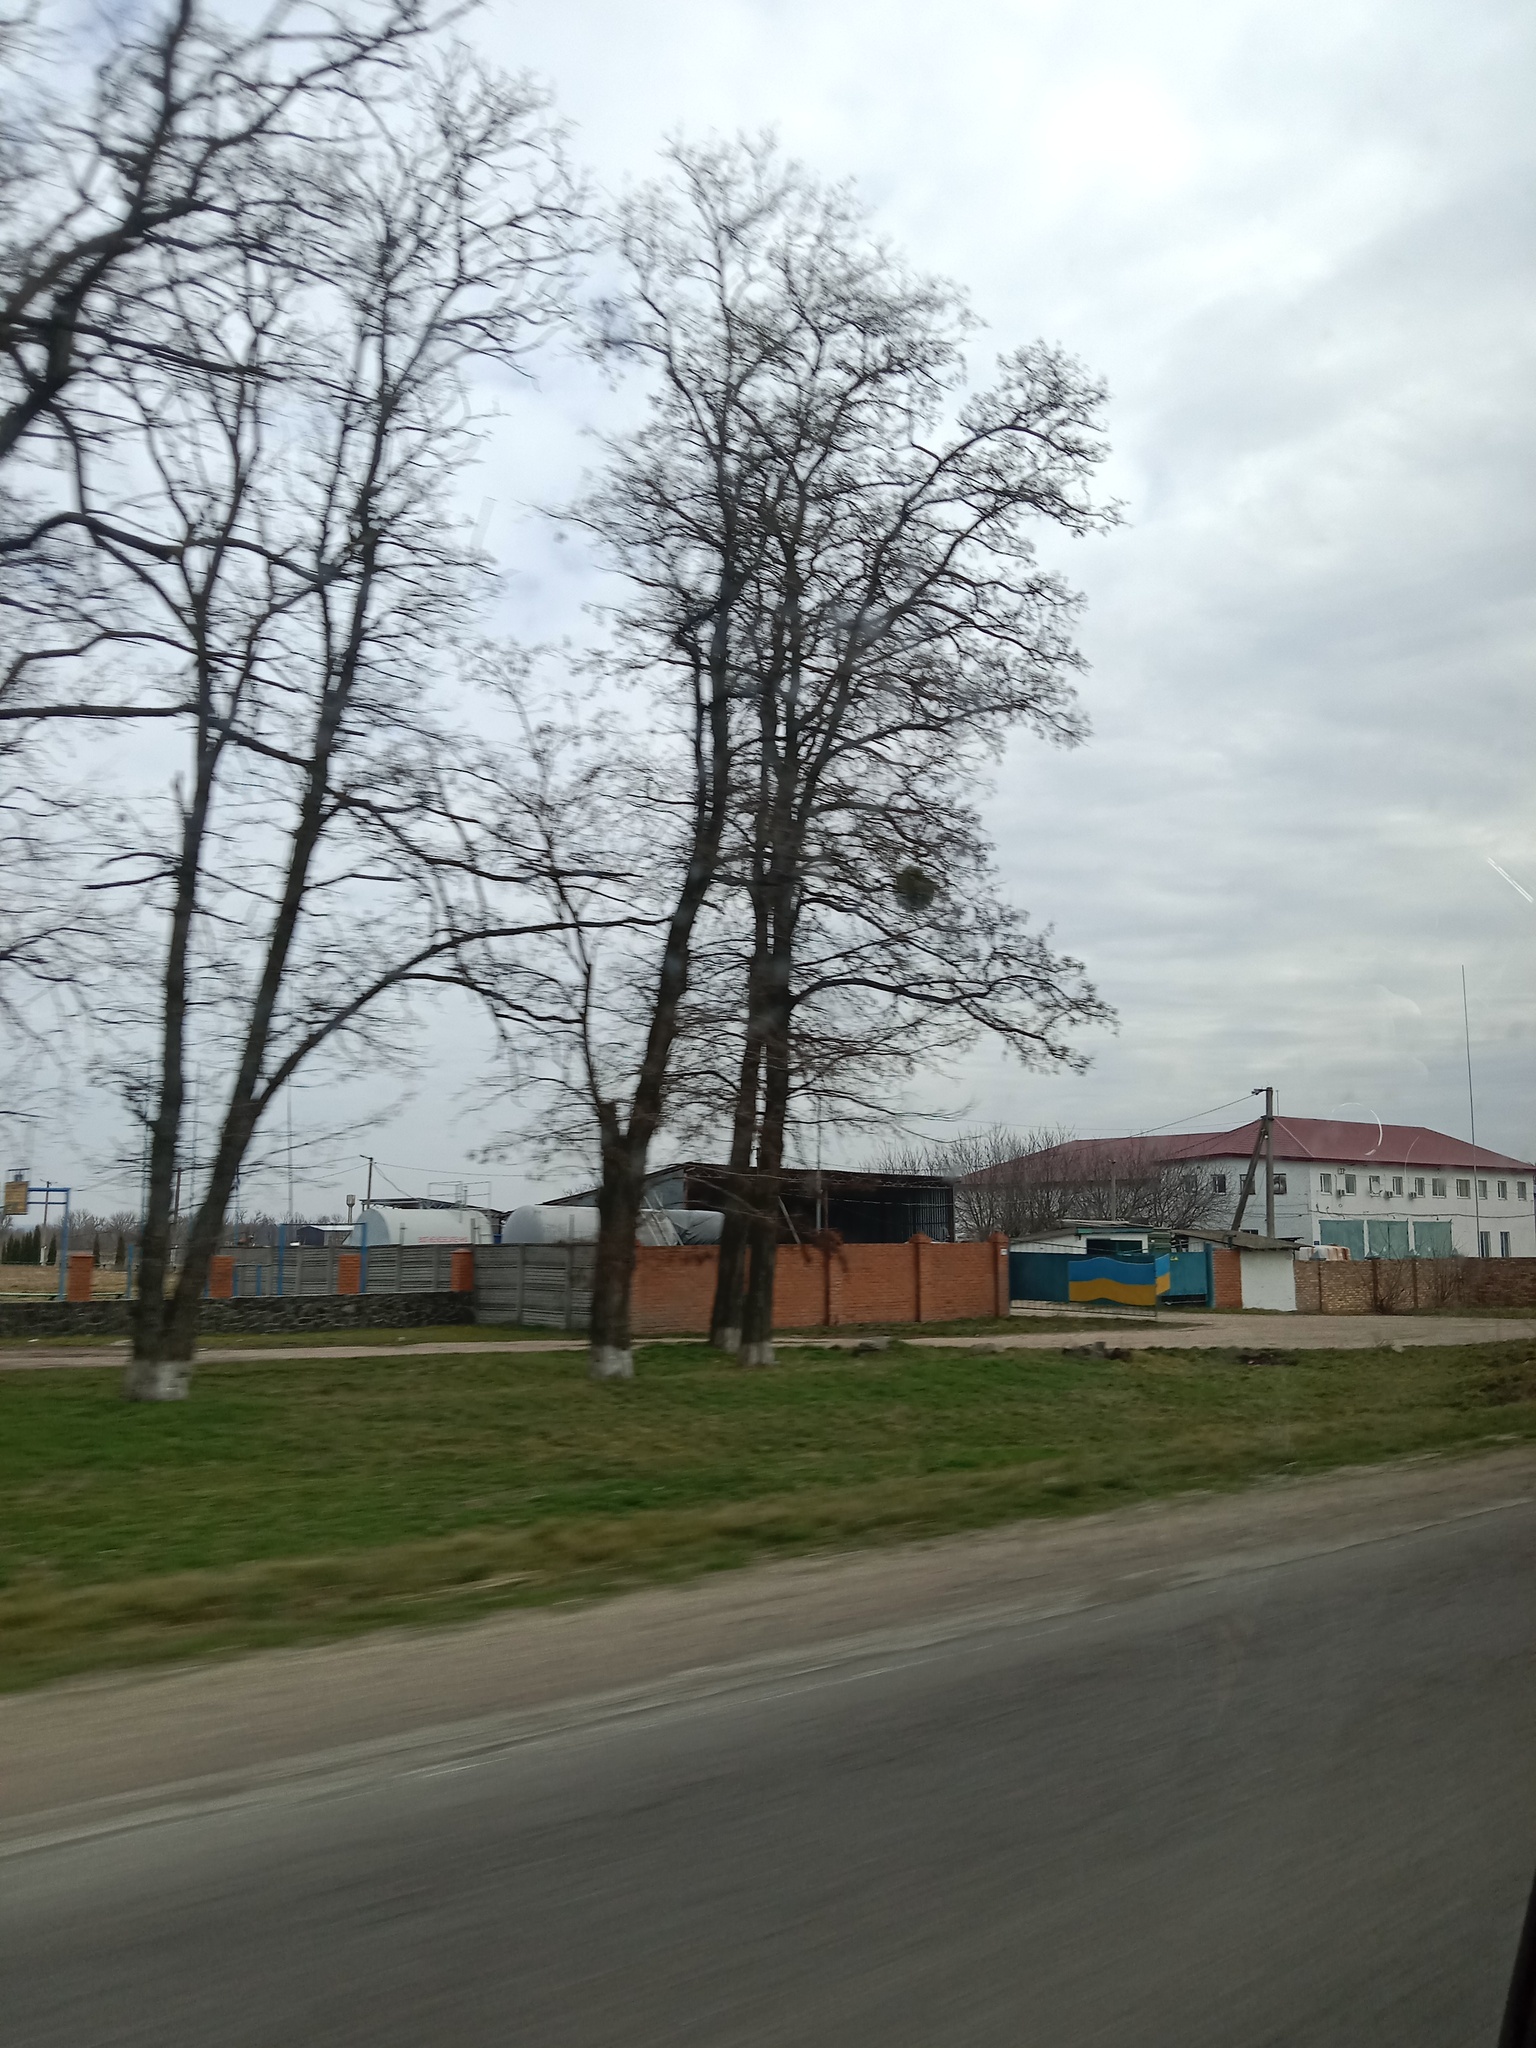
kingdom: Plantae
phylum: Tracheophyta
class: Magnoliopsida
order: Santalales
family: Viscaceae
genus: Viscum
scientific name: Viscum album
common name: Mistletoe
